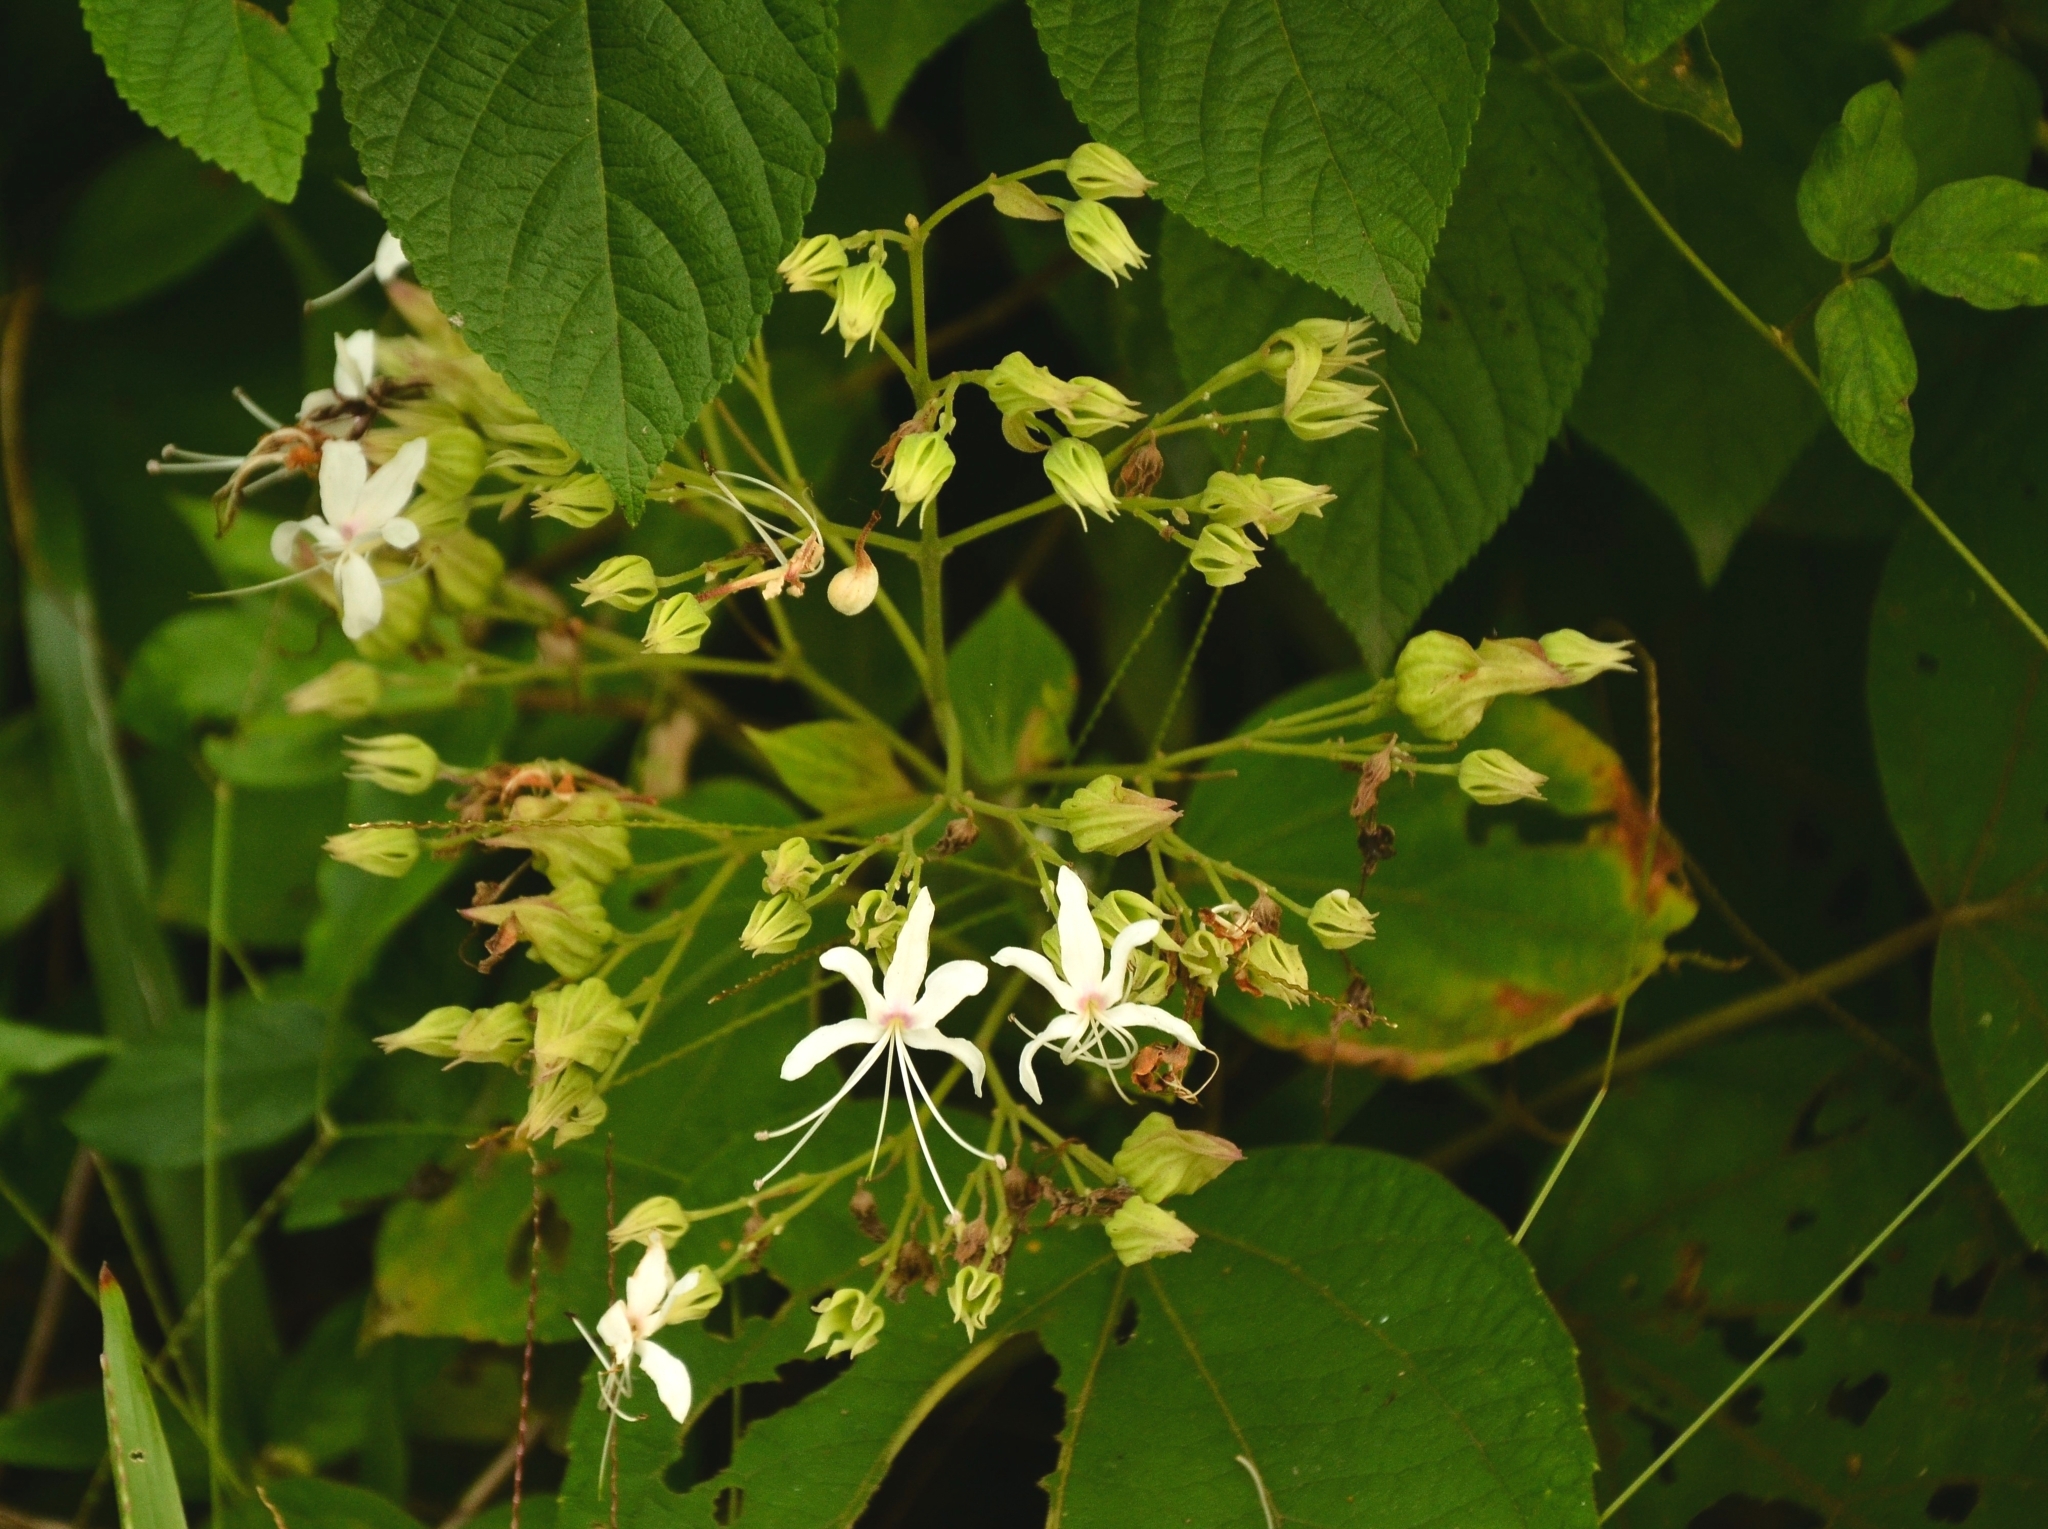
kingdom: Plantae
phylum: Tracheophyta
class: Magnoliopsida
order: Lamiales
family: Lamiaceae
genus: Clerodendrum
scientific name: Clerodendrum infortunatum
